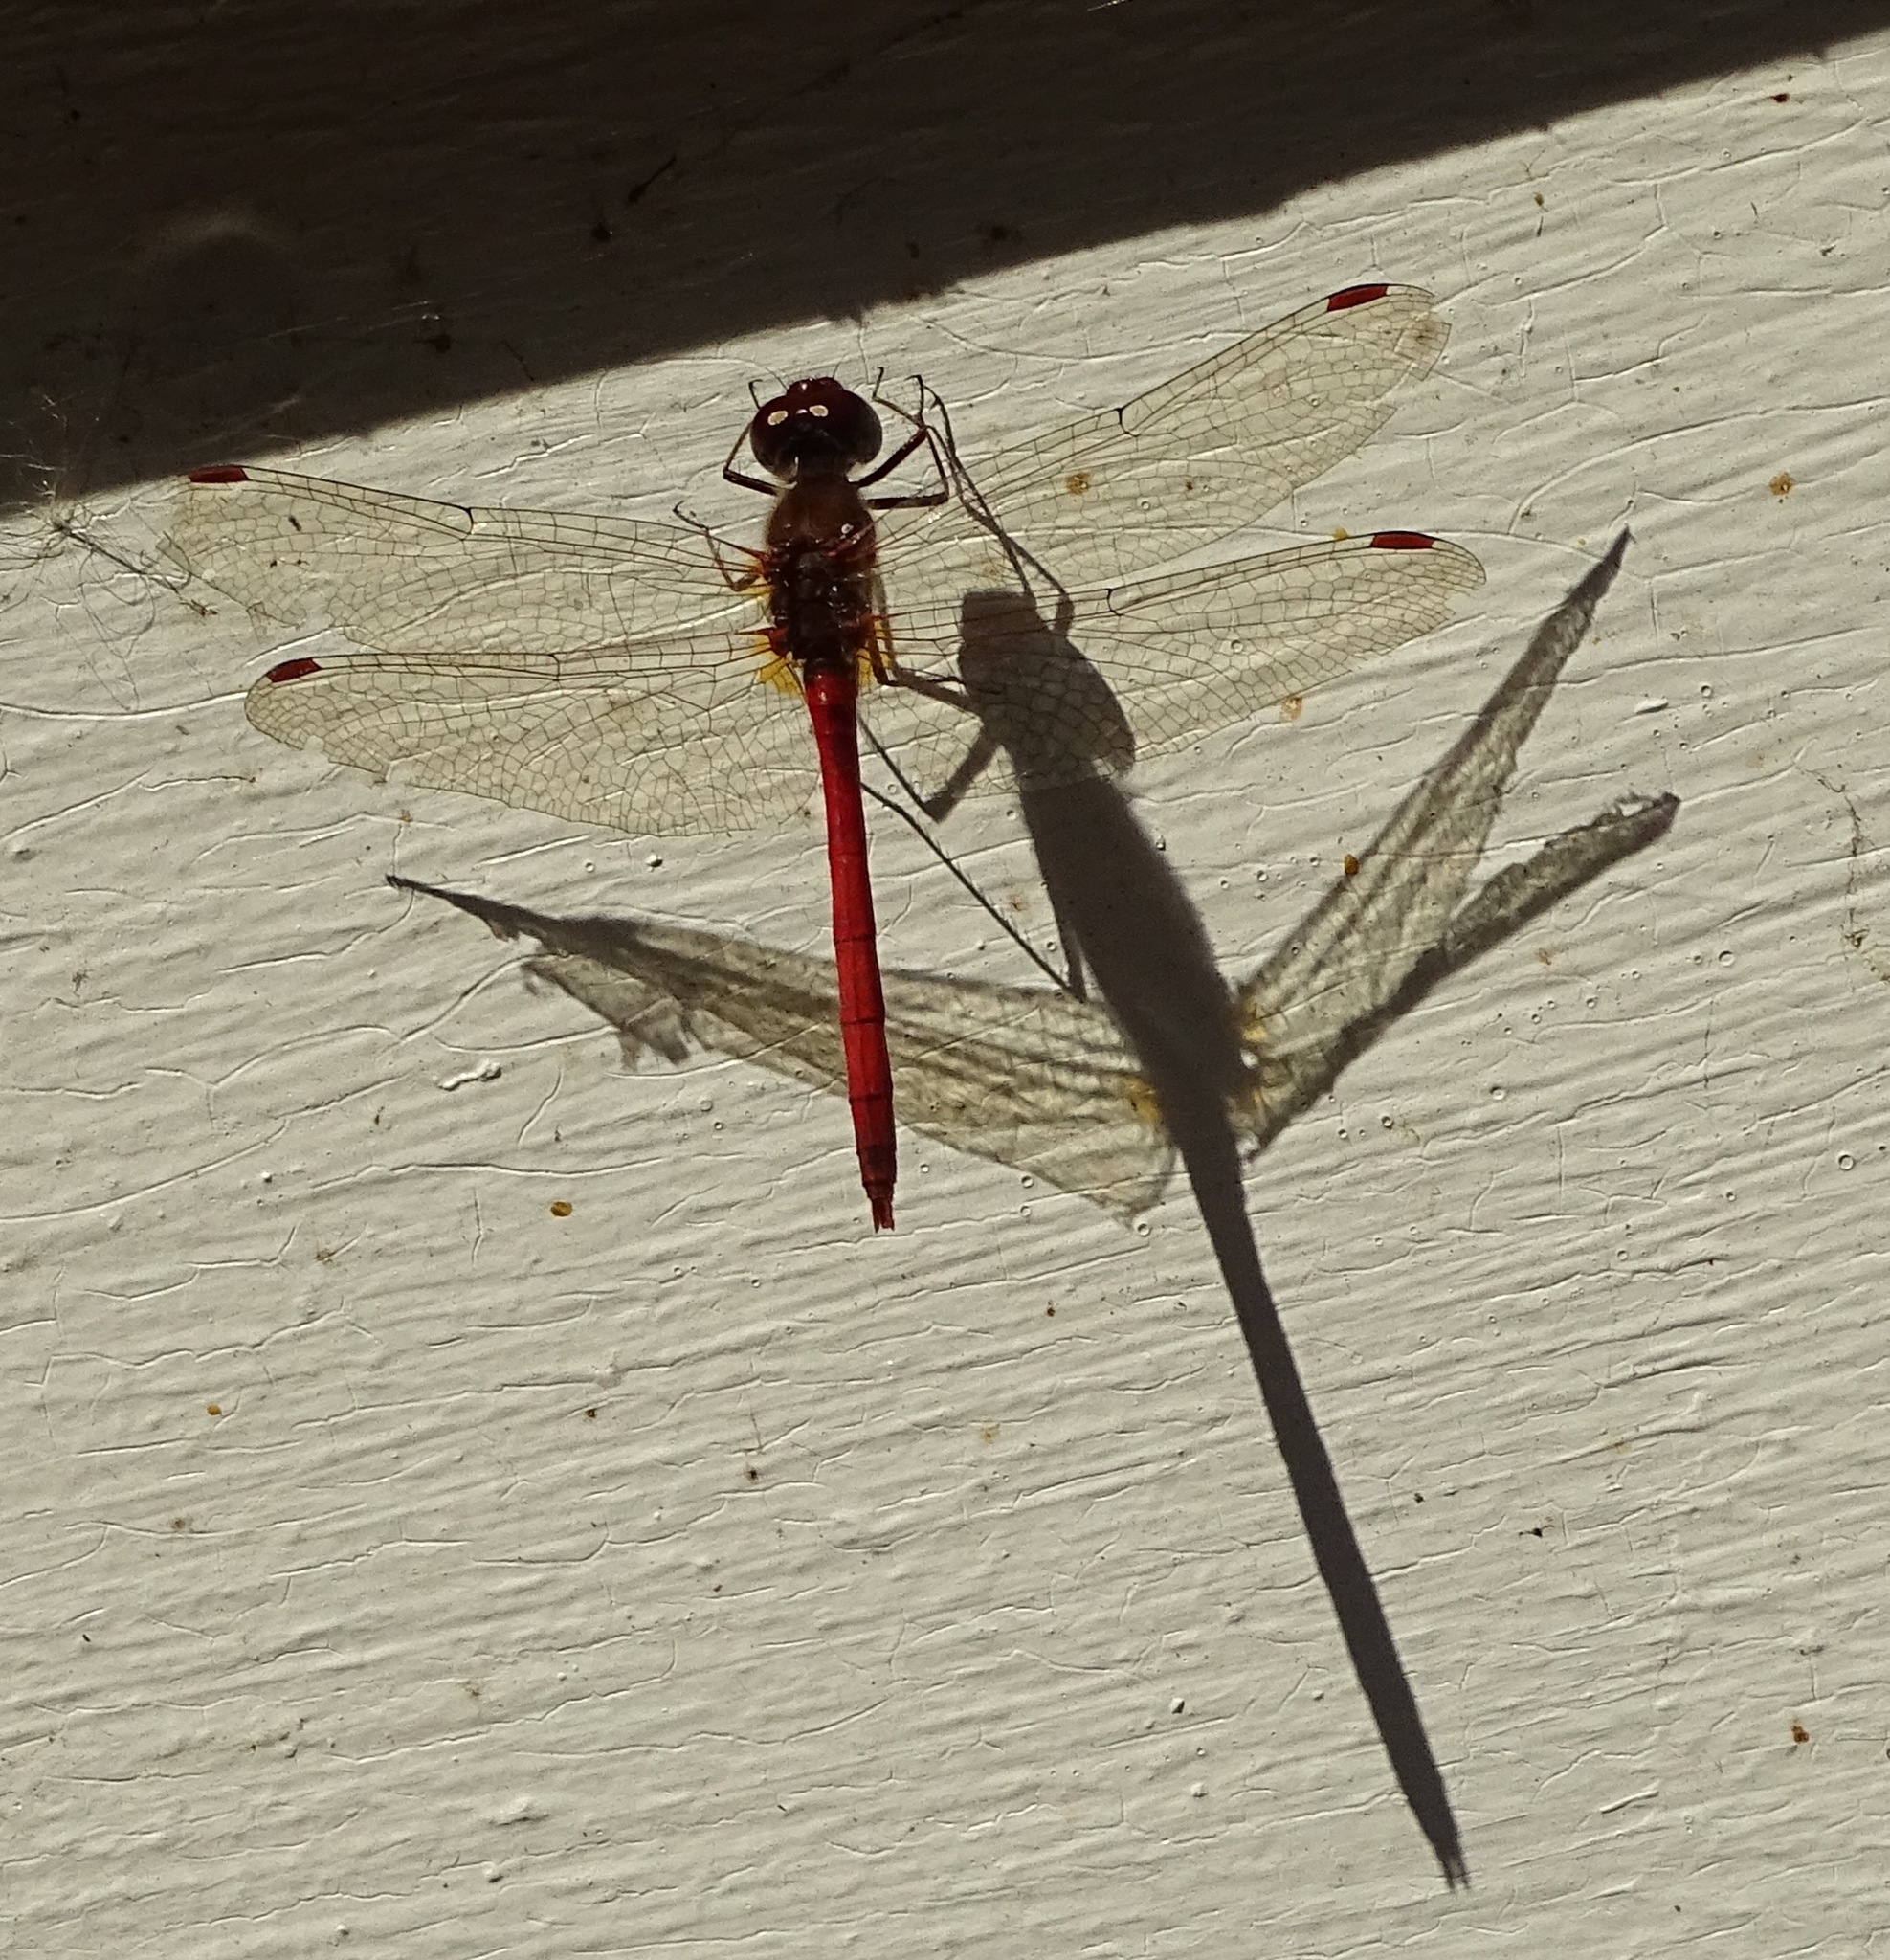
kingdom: Animalia
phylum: Arthropoda
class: Insecta
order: Odonata
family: Libellulidae
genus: Sympetrum
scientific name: Sympetrum vicinum
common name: Autumn meadowhawk
